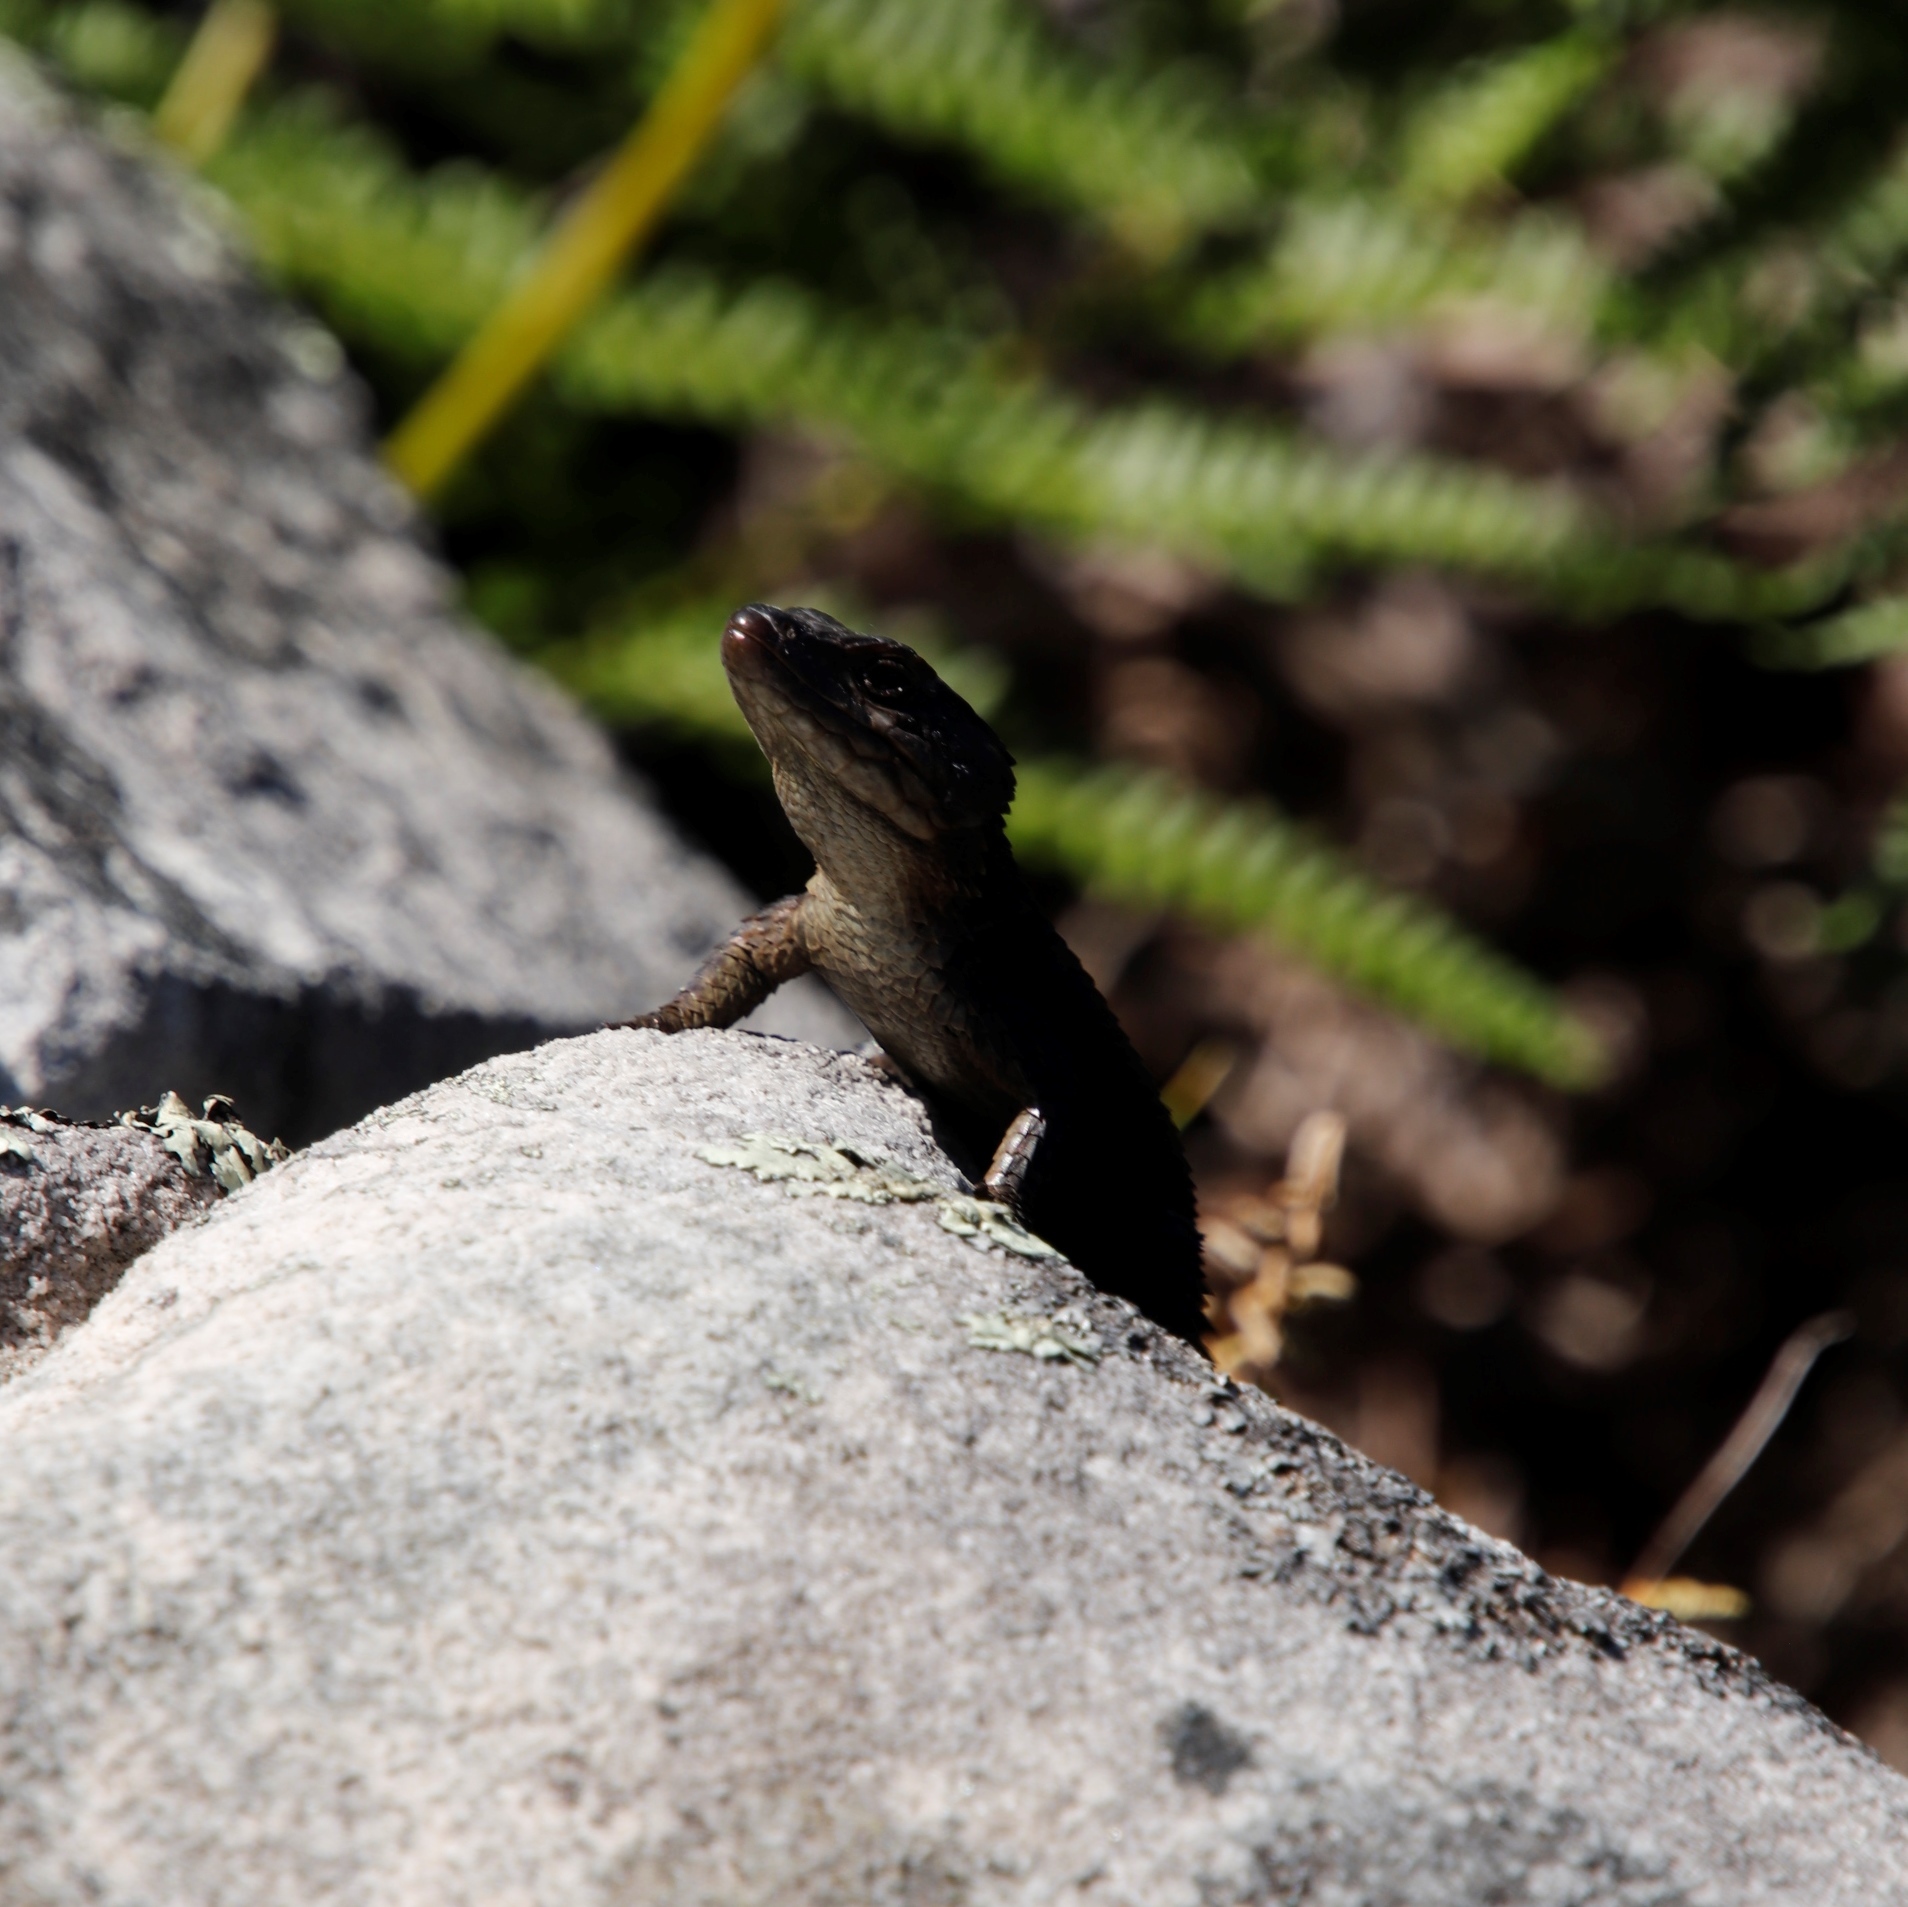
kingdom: Animalia
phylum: Chordata
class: Squamata
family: Cordylidae
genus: Cordylus
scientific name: Cordylus niger
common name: Black girdled lizard
